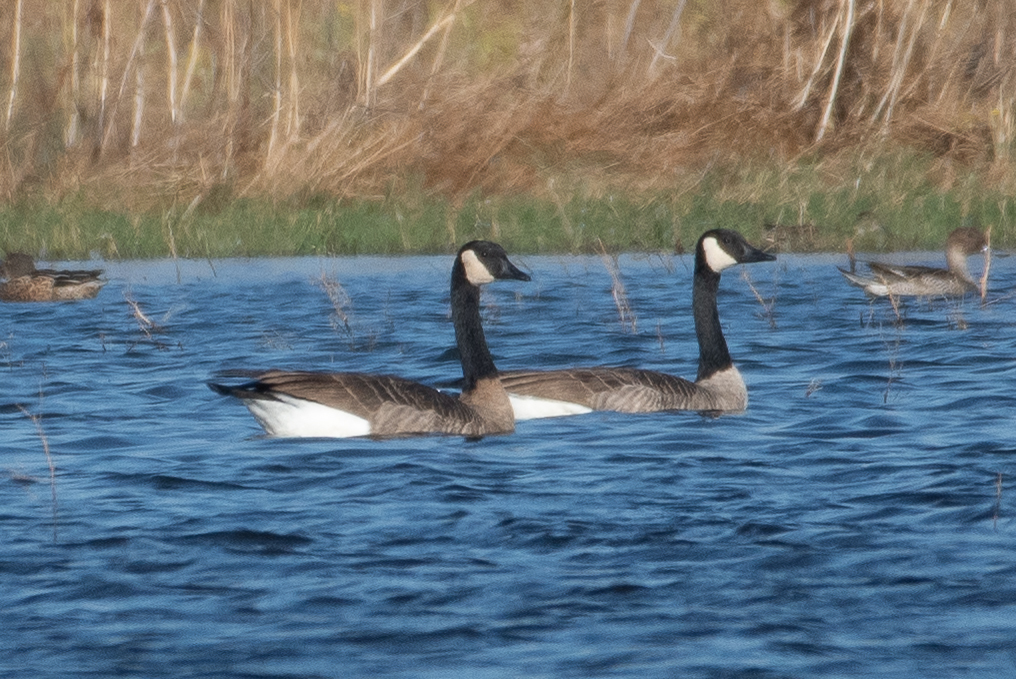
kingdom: Animalia
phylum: Chordata
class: Aves
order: Anseriformes
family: Anatidae
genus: Branta
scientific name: Branta canadensis
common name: Canada goose
